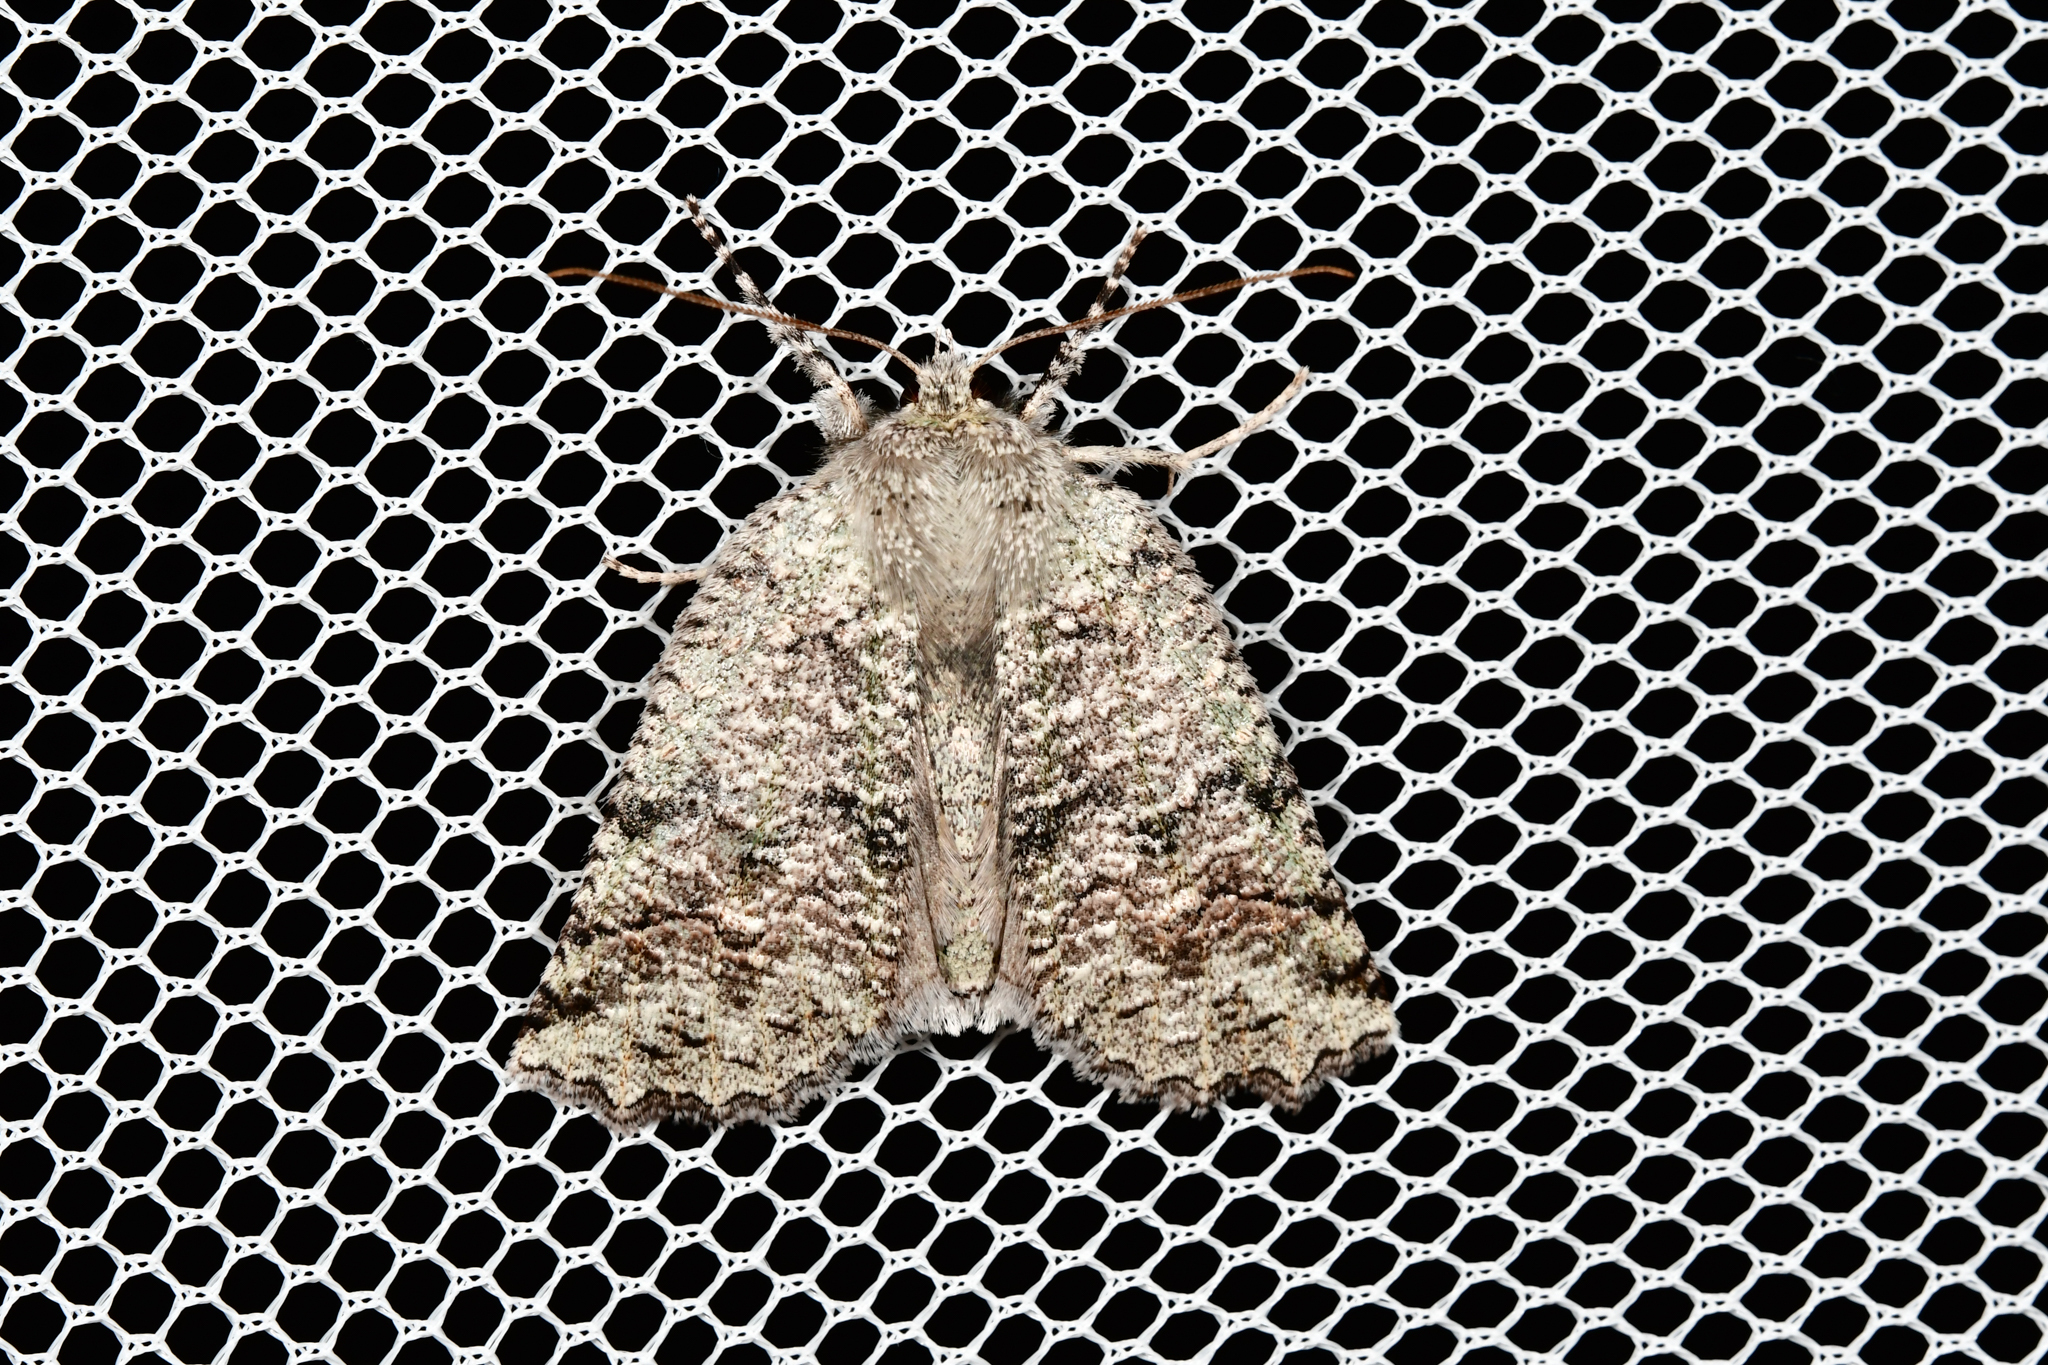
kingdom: Animalia
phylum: Arthropoda
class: Insecta
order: Lepidoptera
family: Geometridae
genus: Declana
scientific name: Declana floccosa
